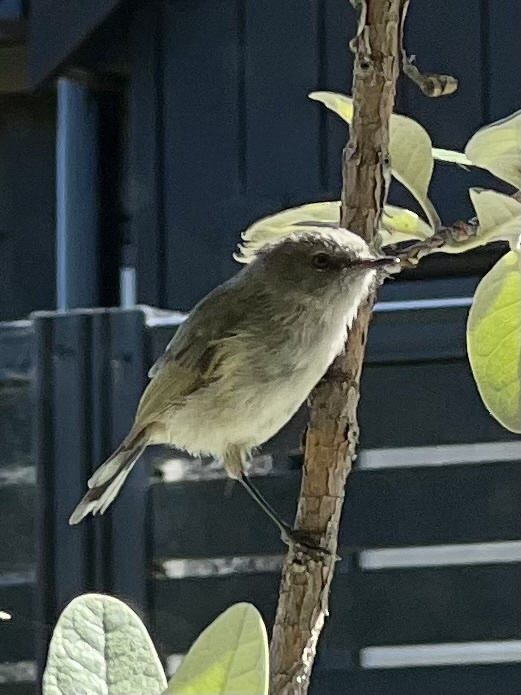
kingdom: Animalia
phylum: Chordata
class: Aves
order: Passeriformes
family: Acanthizidae
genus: Gerygone
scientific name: Gerygone igata
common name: Grey gerygone
